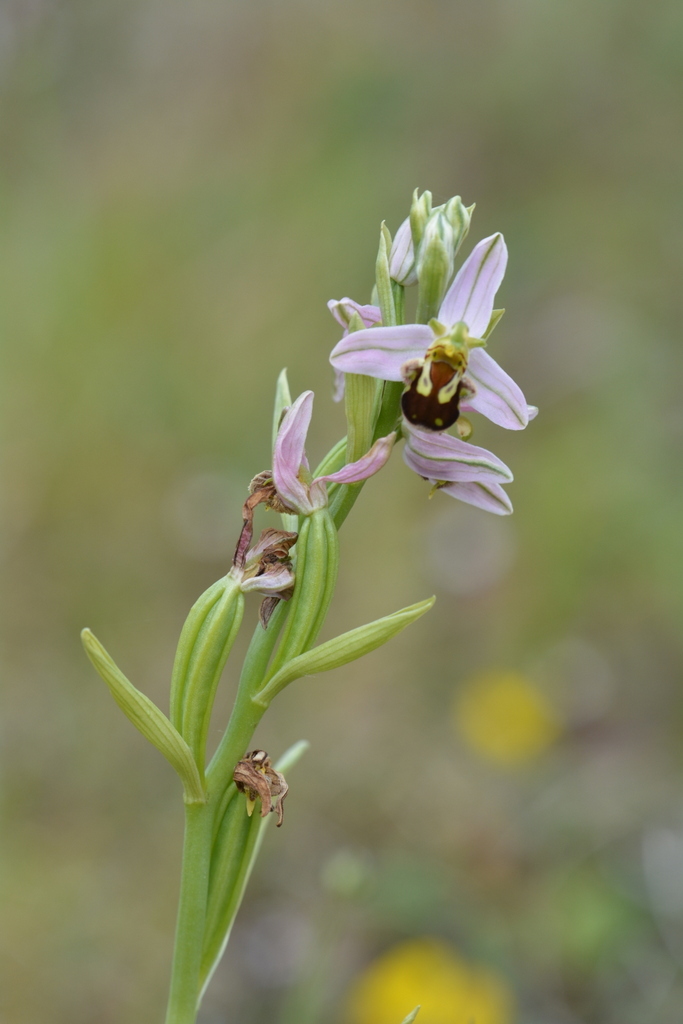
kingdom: Plantae
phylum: Tracheophyta
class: Liliopsida
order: Asparagales
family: Orchidaceae
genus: Ophrys
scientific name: Ophrys apifera
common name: Bee orchid
